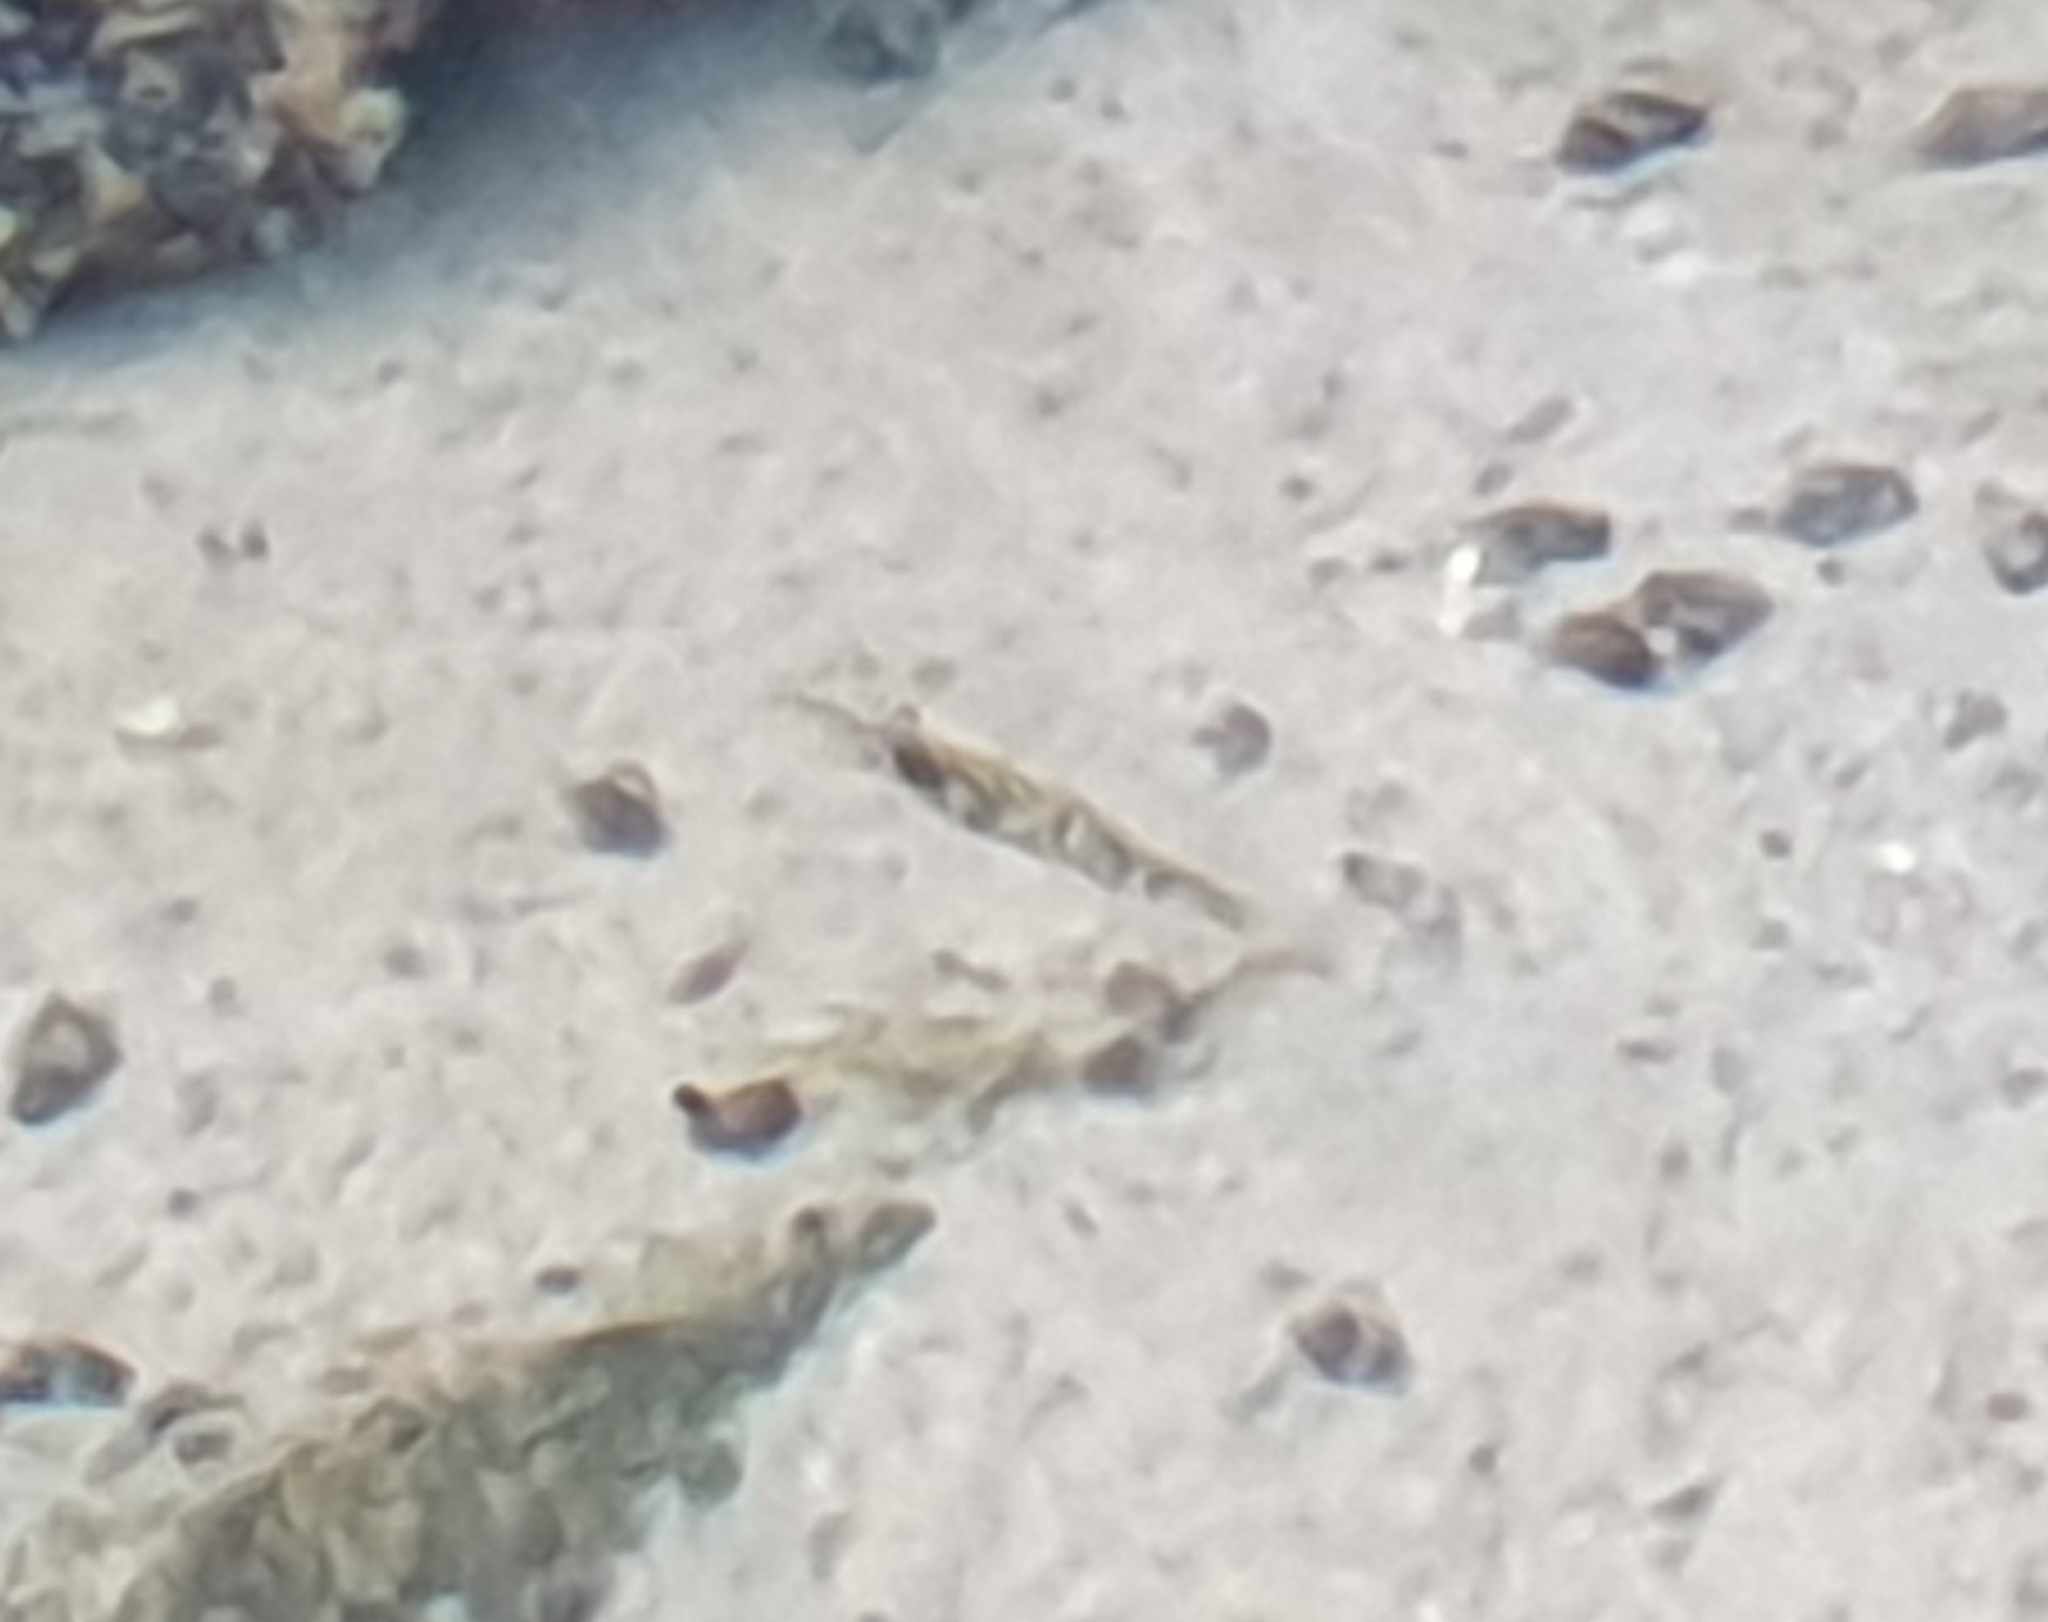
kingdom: Animalia
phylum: Arthropoda
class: Malacostraca
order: Decapoda
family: Atyidae
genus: Paratya
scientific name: Paratya curvirostris
